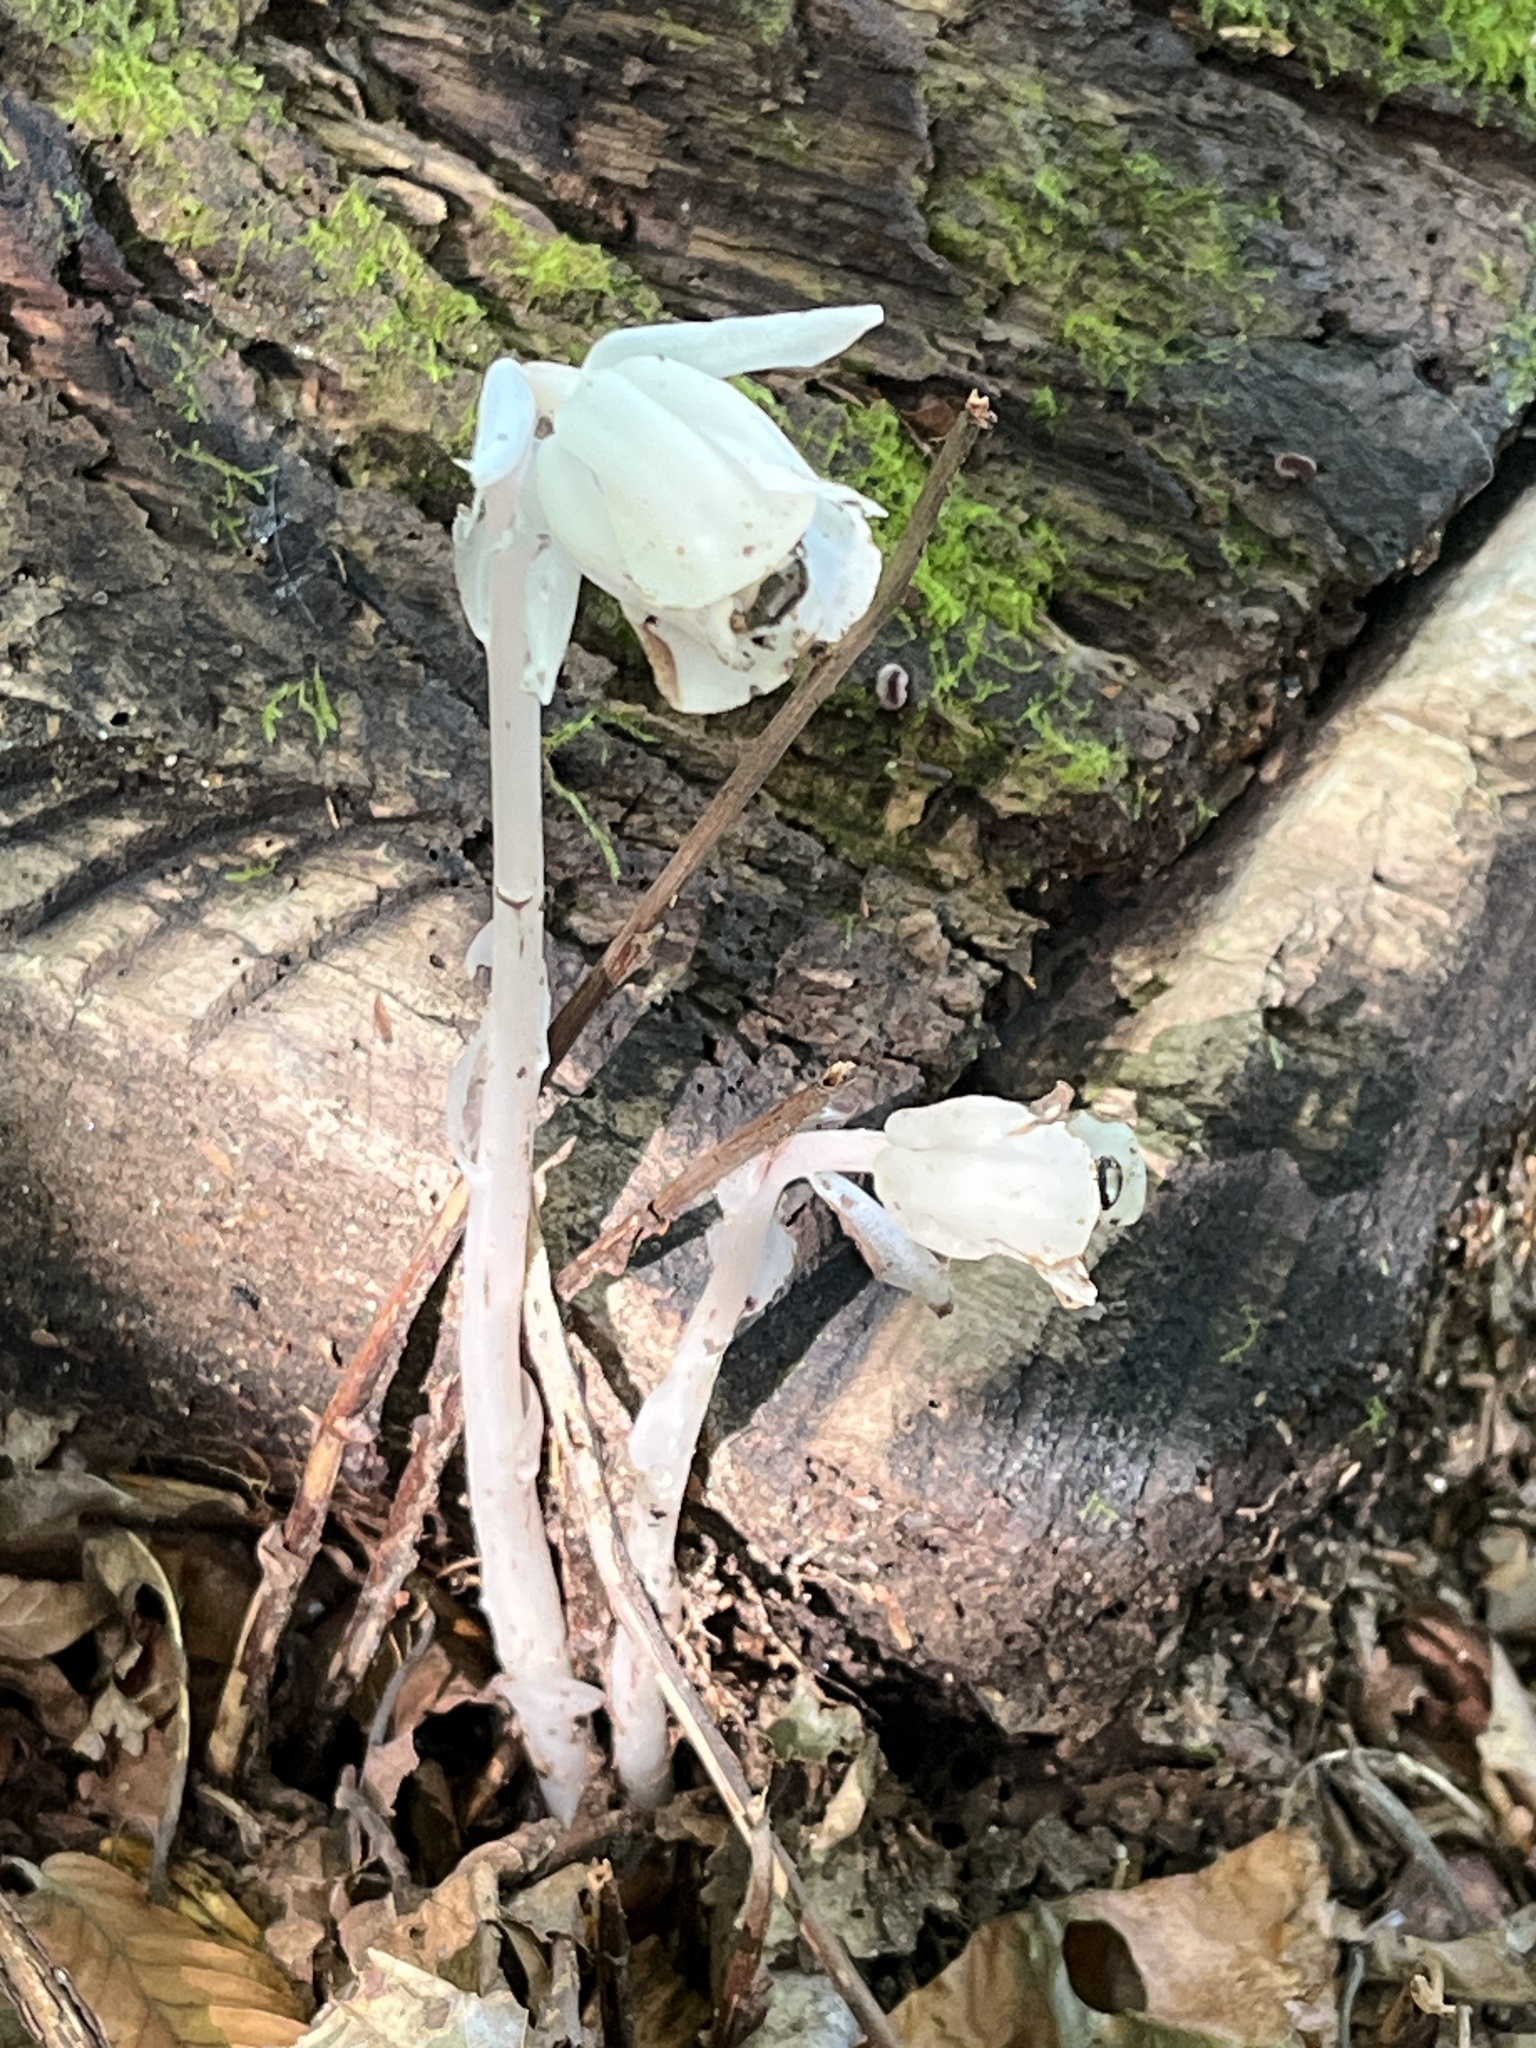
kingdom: Plantae
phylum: Tracheophyta
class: Magnoliopsida
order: Ericales
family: Ericaceae
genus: Monotropa
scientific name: Monotropa uniflora
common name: Convulsion root
